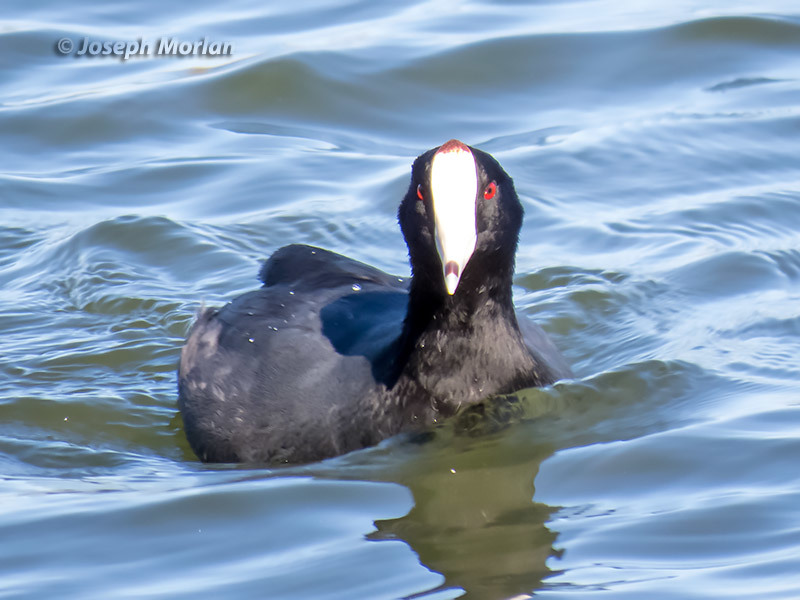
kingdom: Animalia
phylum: Chordata
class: Aves
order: Gruiformes
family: Rallidae
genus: Fulica
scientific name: Fulica americana
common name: American coot
